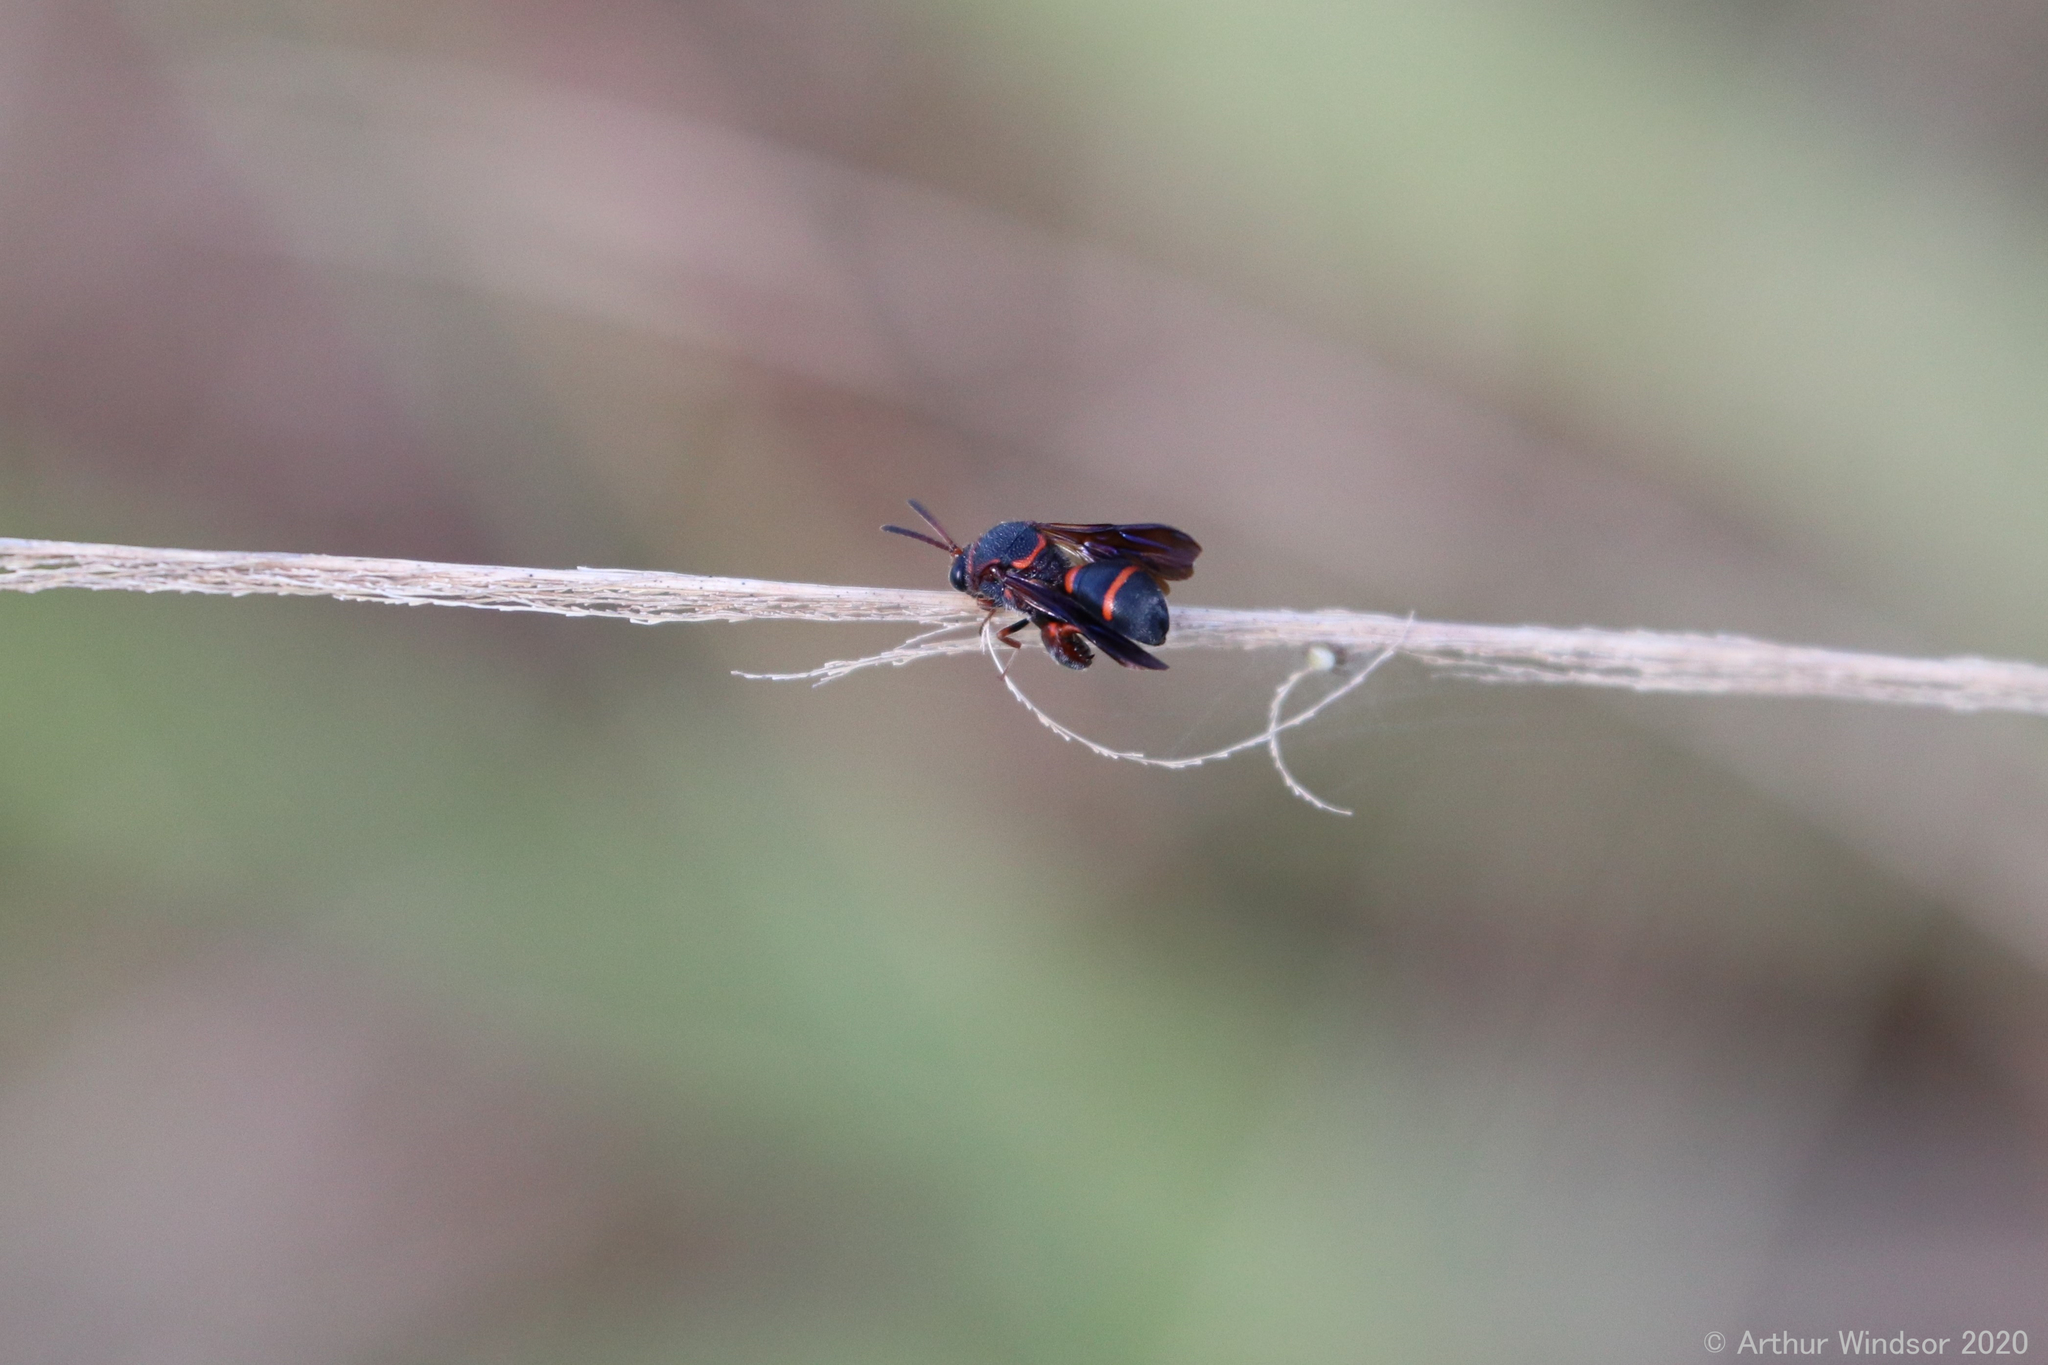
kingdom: Animalia
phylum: Arthropoda
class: Insecta
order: Hymenoptera
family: Leucospidae
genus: Leucospis
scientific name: Leucospis slossonae
